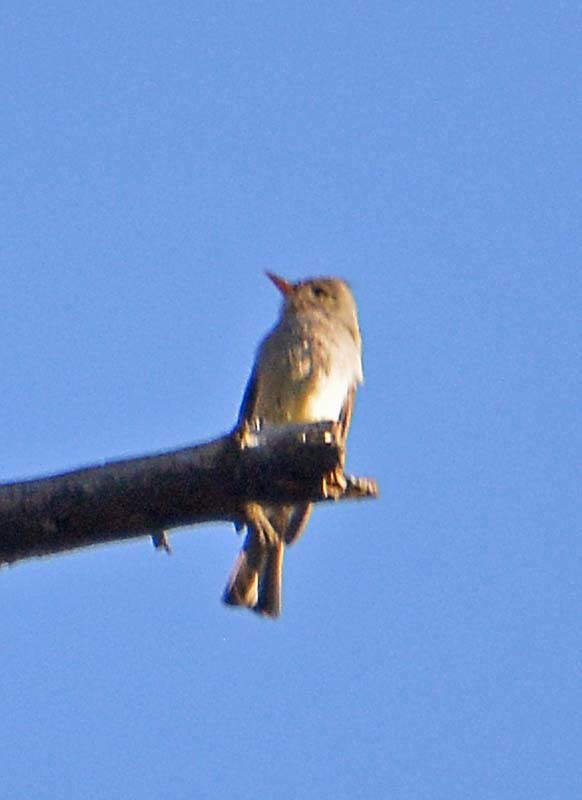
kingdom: Animalia
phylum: Chordata
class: Aves
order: Passeriformes
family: Tyrannidae
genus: Contopus
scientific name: Contopus pertinax
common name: Greater pewee
